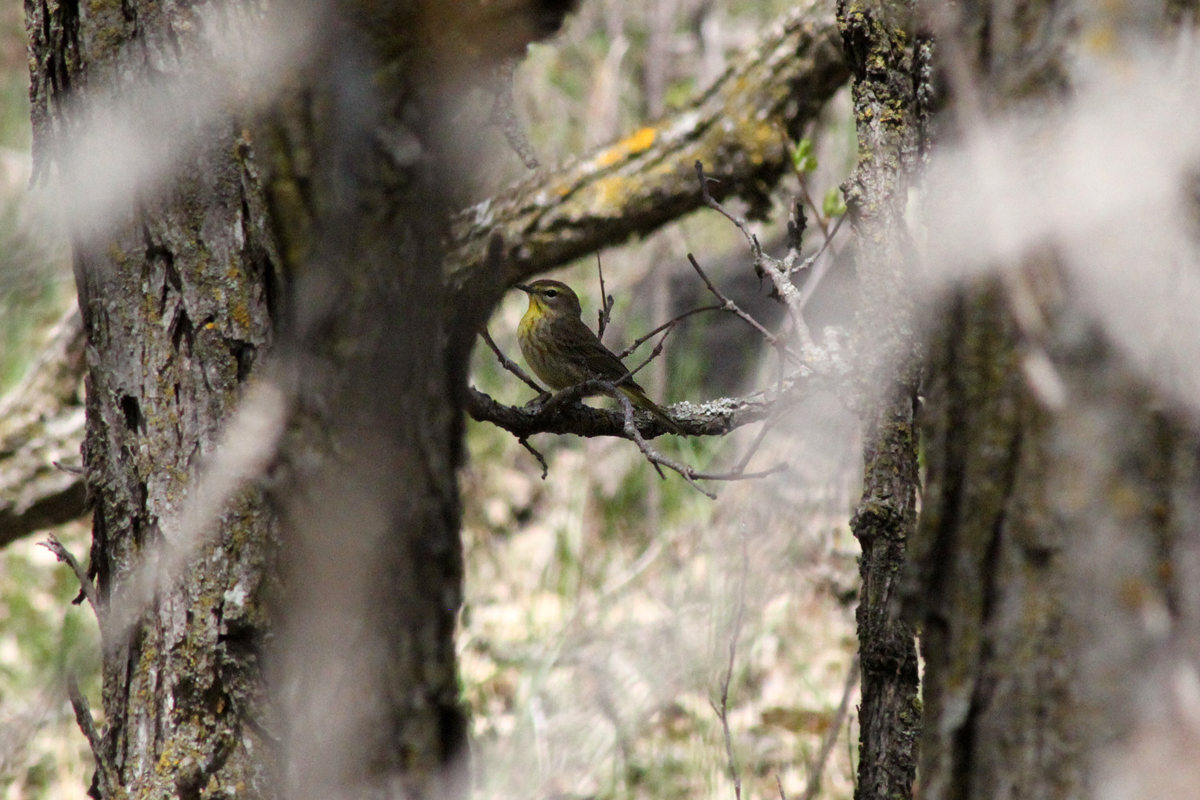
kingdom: Animalia
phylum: Chordata
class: Aves
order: Passeriformes
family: Parulidae
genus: Setophaga
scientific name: Setophaga palmarum
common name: Palm warbler
